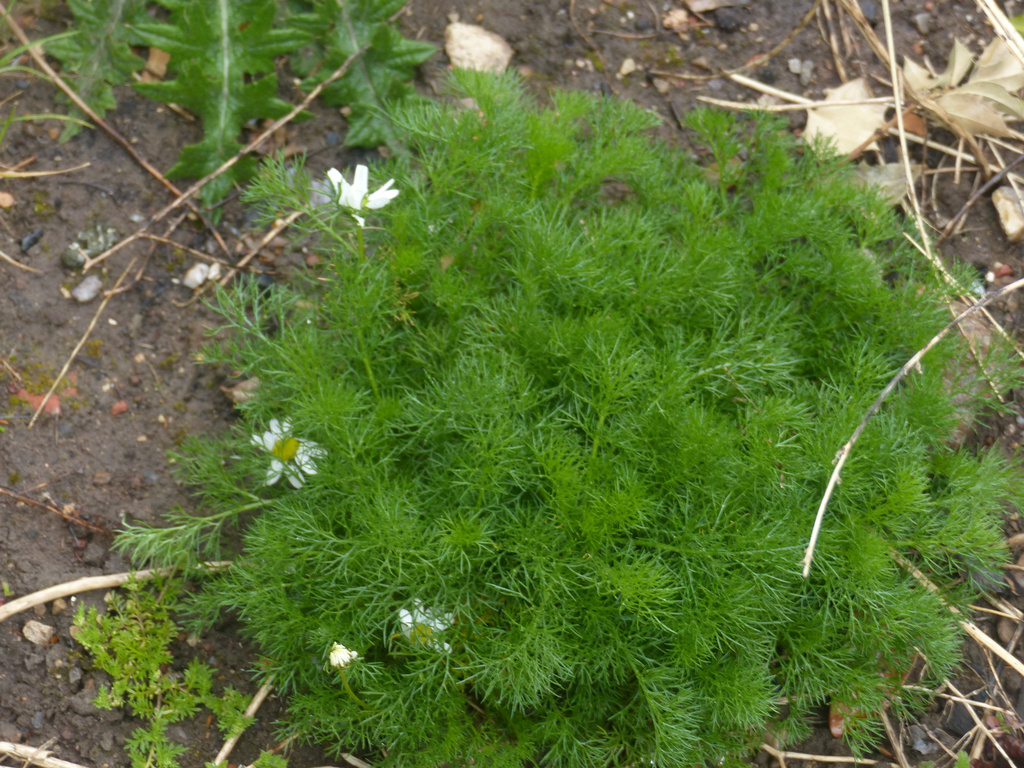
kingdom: Plantae
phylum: Tracheophyta
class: Magnoliopsida
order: Asterales
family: Asteraceae
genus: Tripleurospermum
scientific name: Tripleurospermum inodorum
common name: Scentless mayweed
